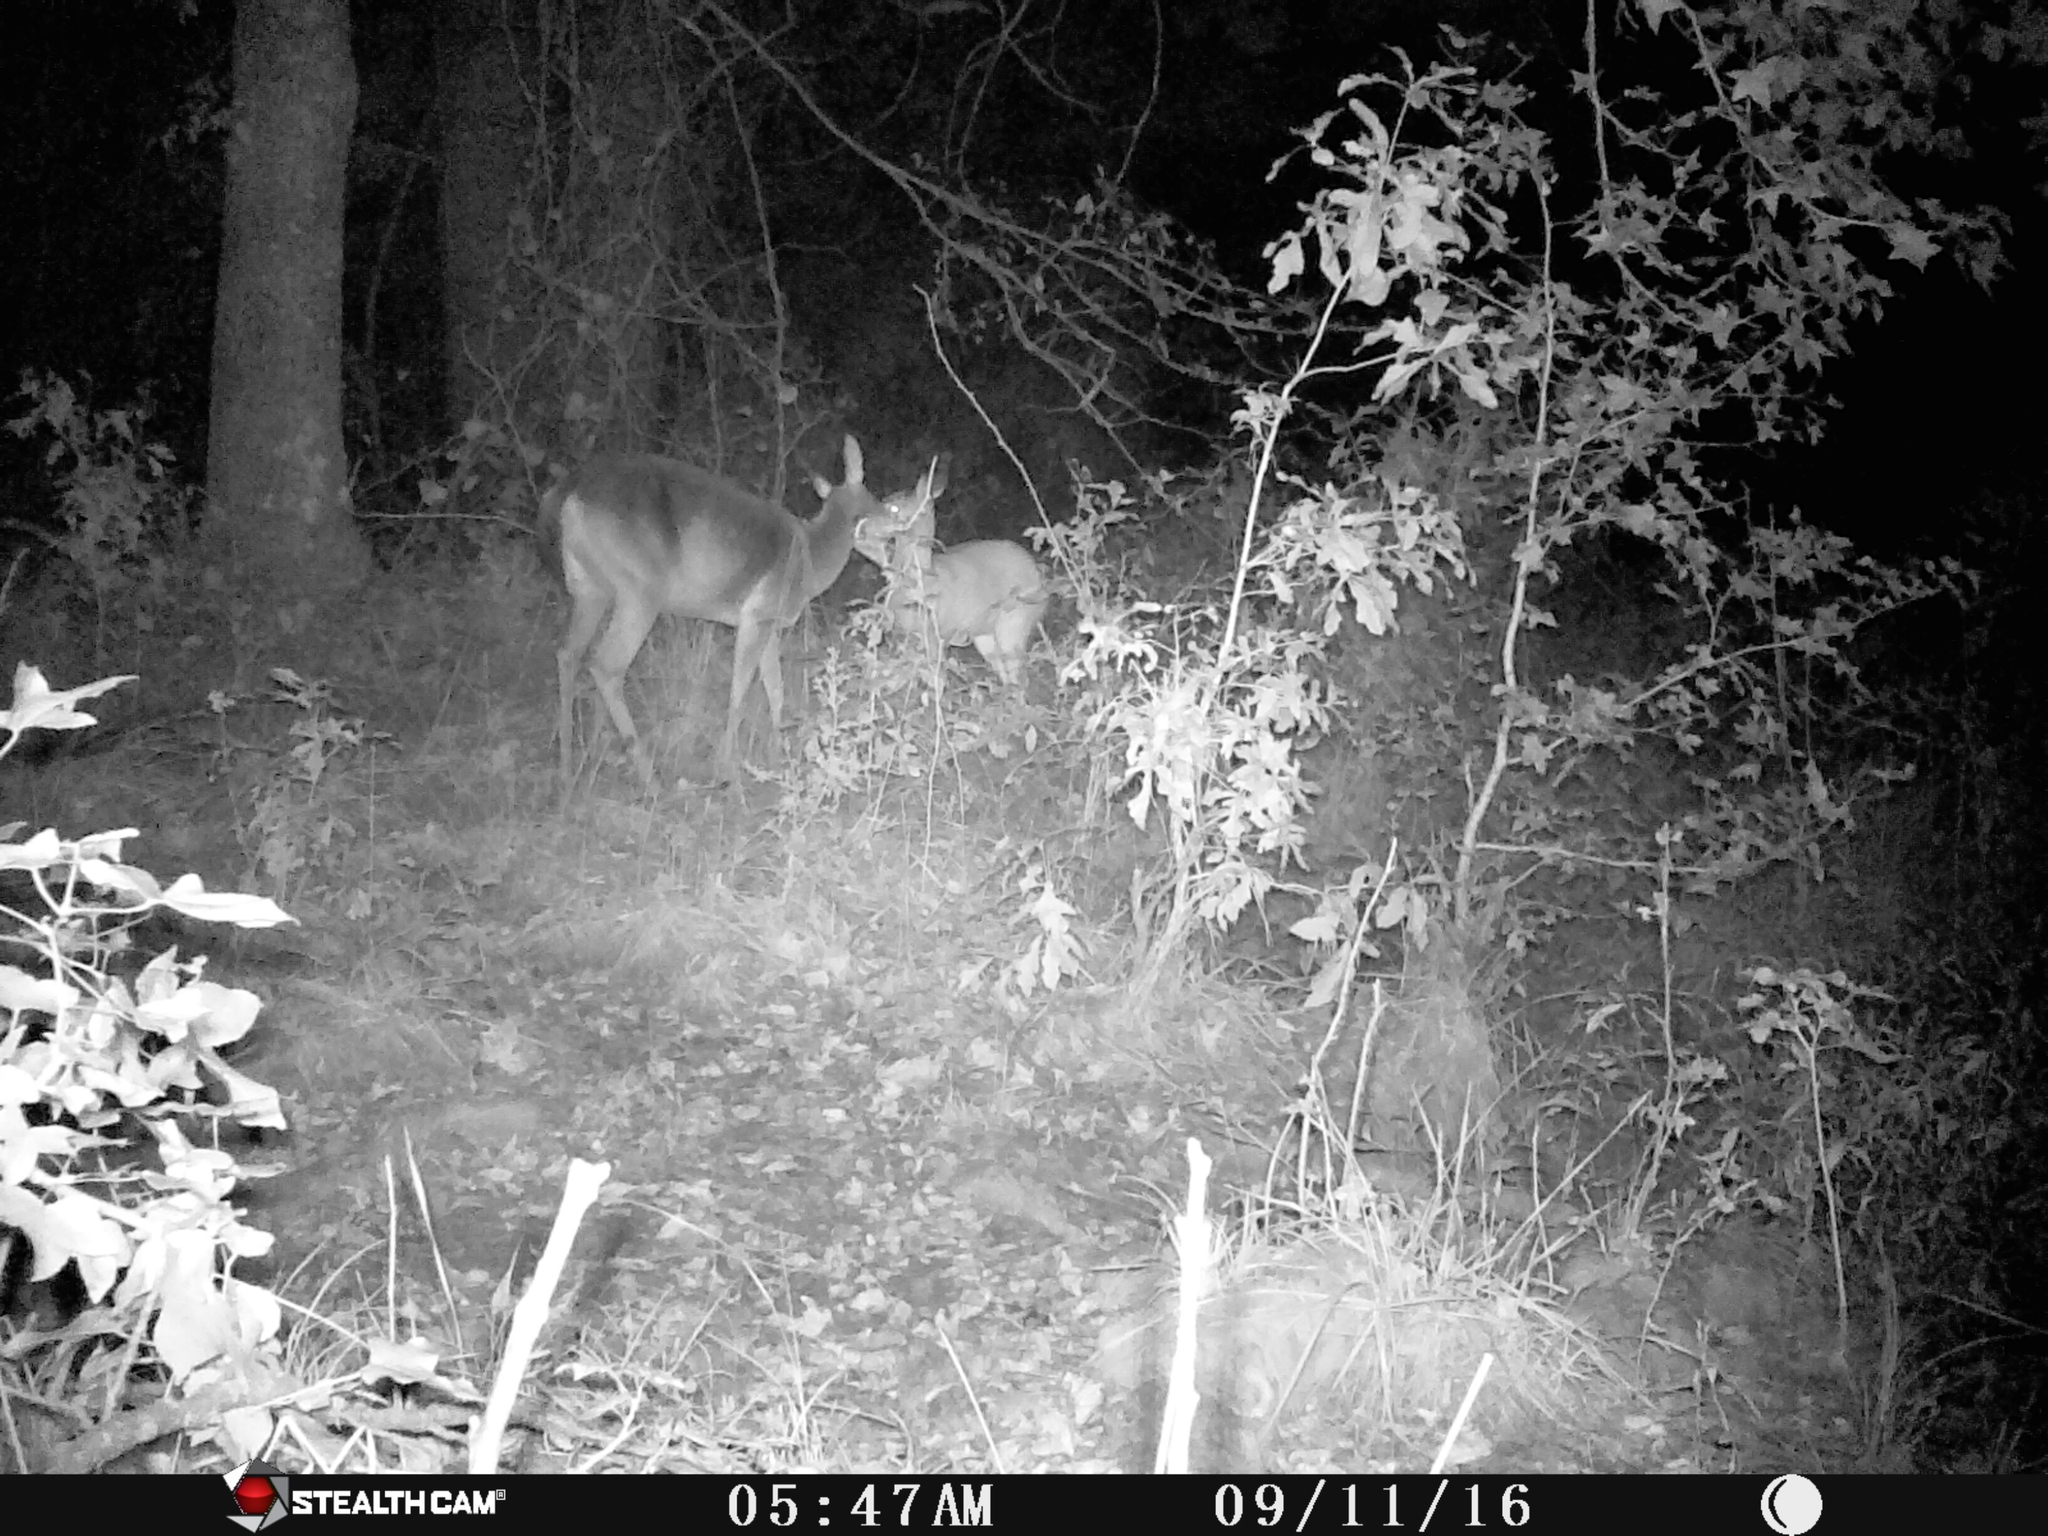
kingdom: Animalia
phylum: Chordata
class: Mammalia
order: Artiodactyla
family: Cervidae
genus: Odocoileus
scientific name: Odocoileus virginianus
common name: White-tailed deer
